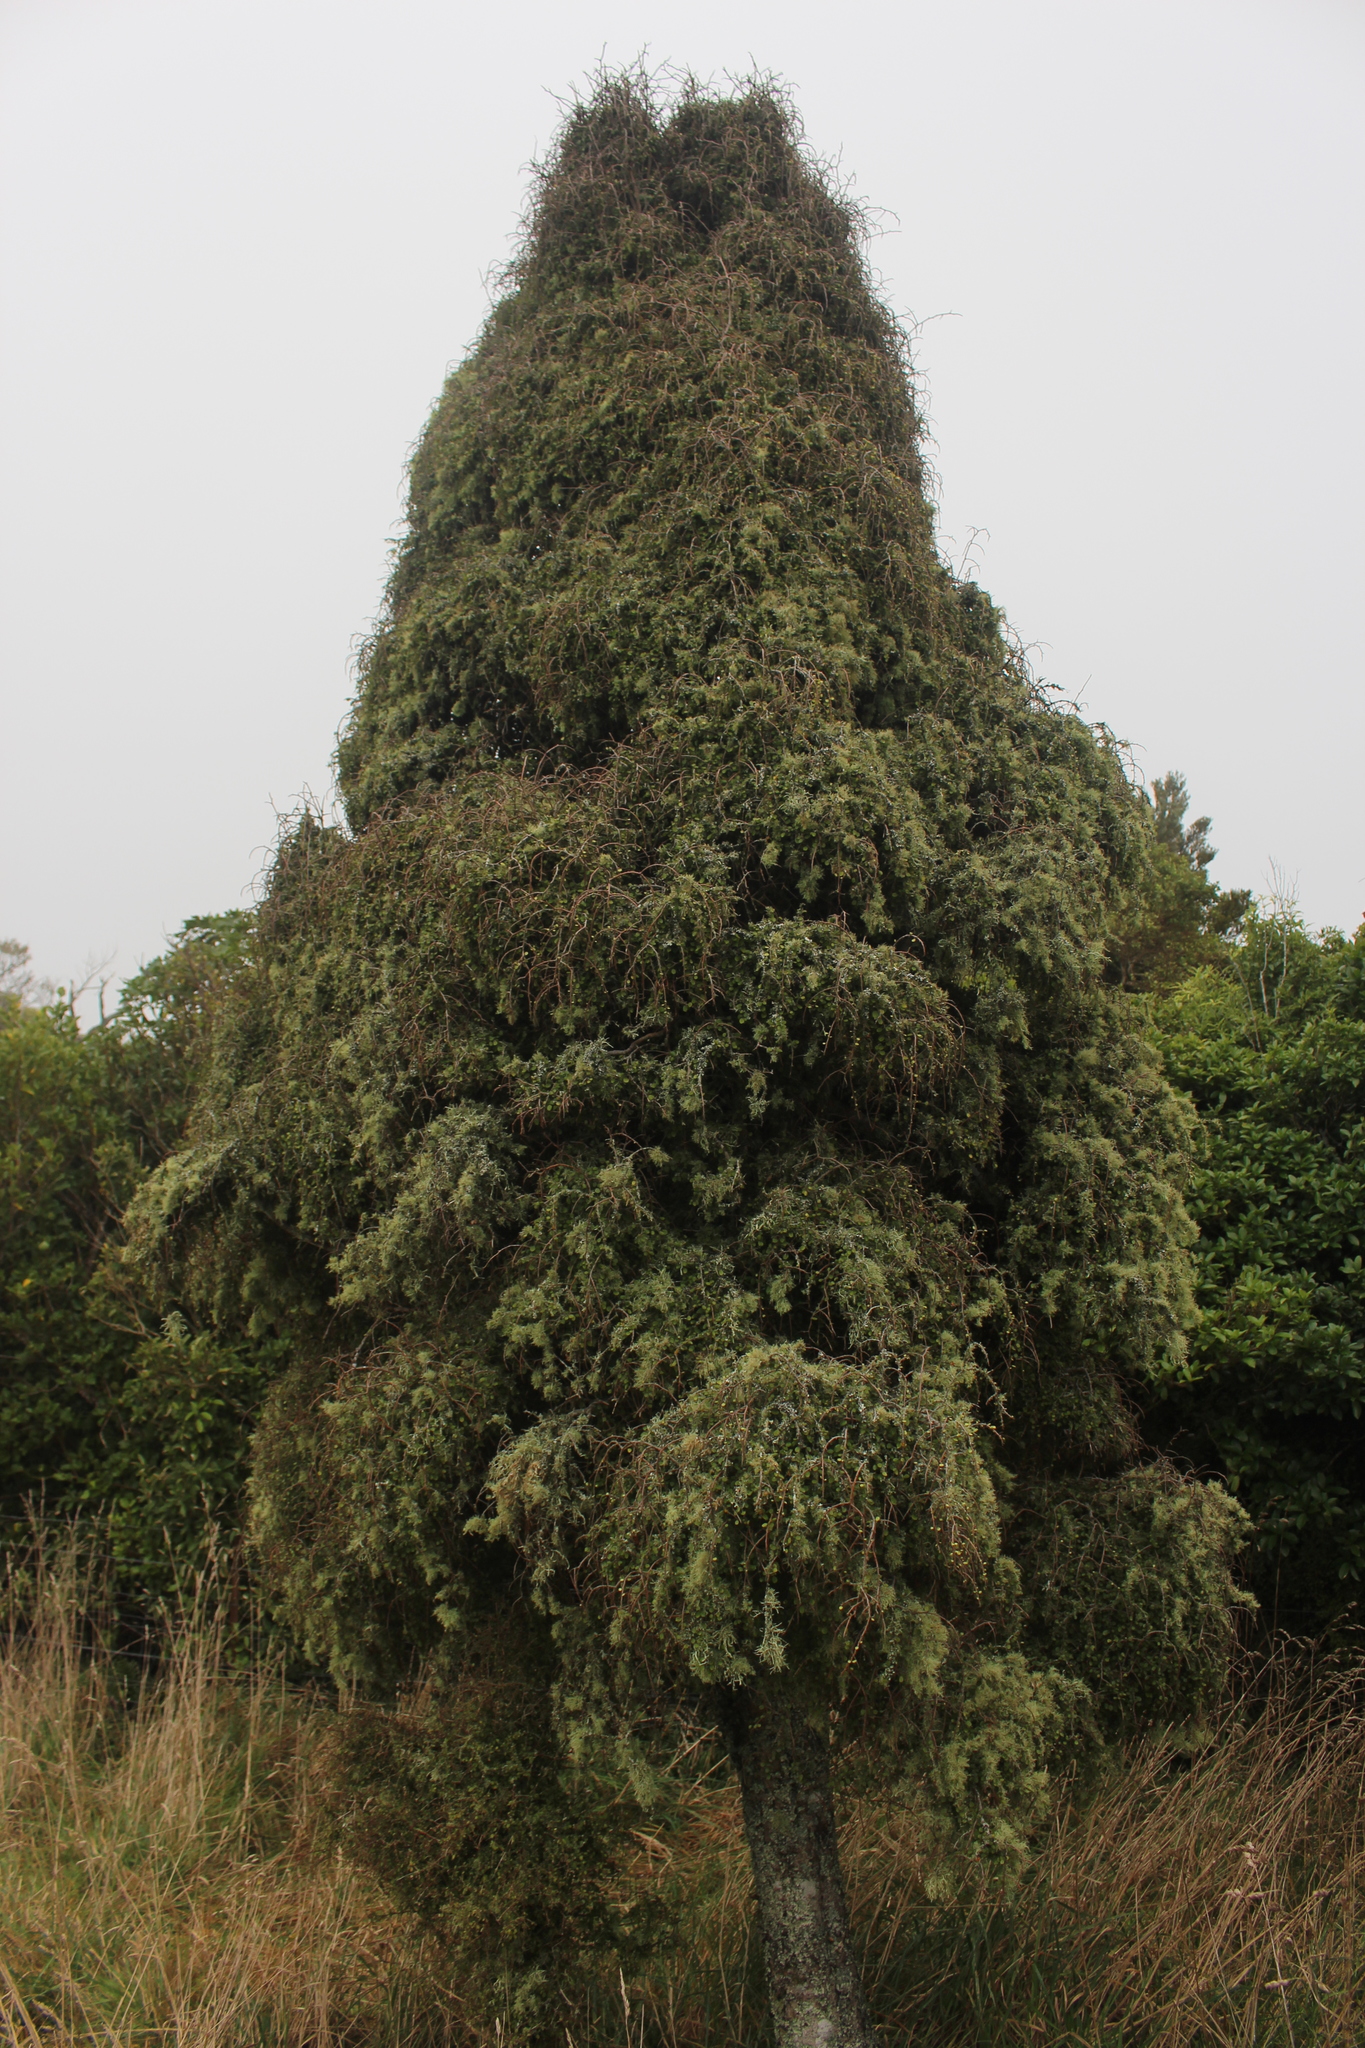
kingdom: Plantae
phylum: Tracheophyta
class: Magnoliopsida
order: Ericales
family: Primulaceae
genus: Myrsine
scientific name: Myrsine divaricata
